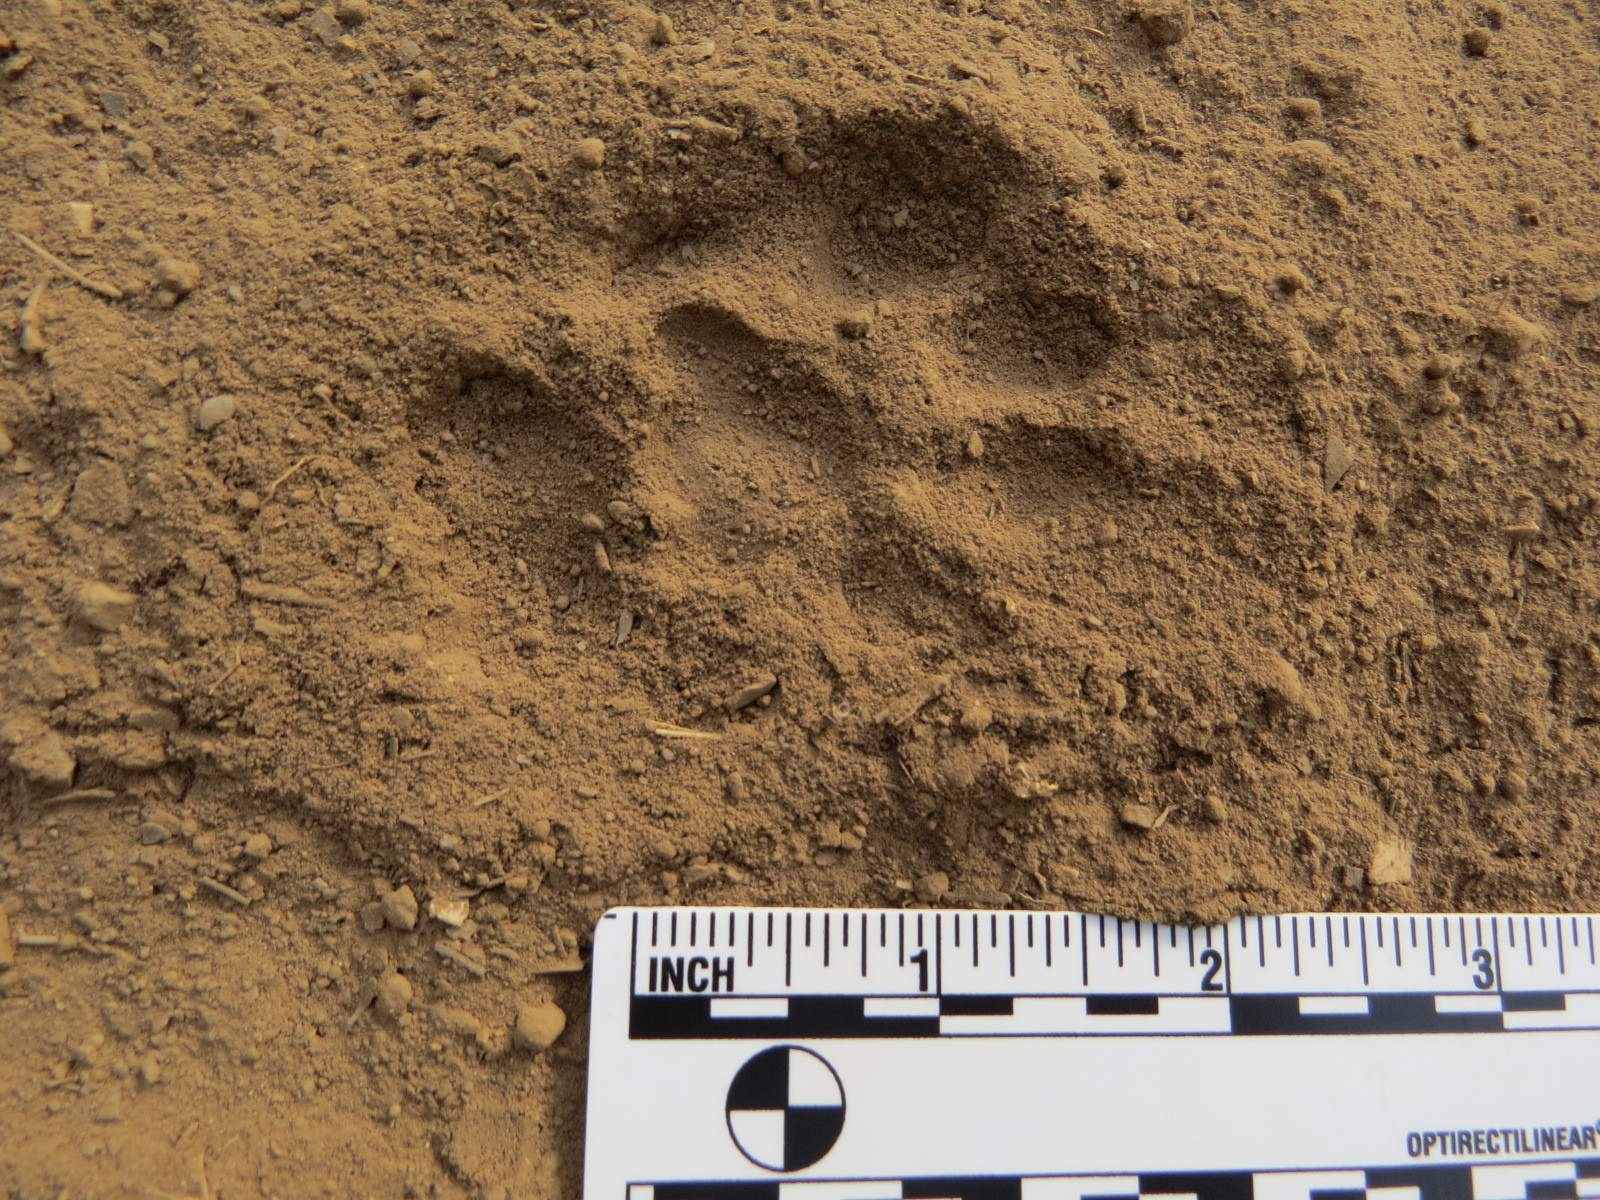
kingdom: Animalia
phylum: Chordata
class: Mammalia
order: Carnivora
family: Felidae
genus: Lynx
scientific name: Lynx rufus
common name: Bobcat
